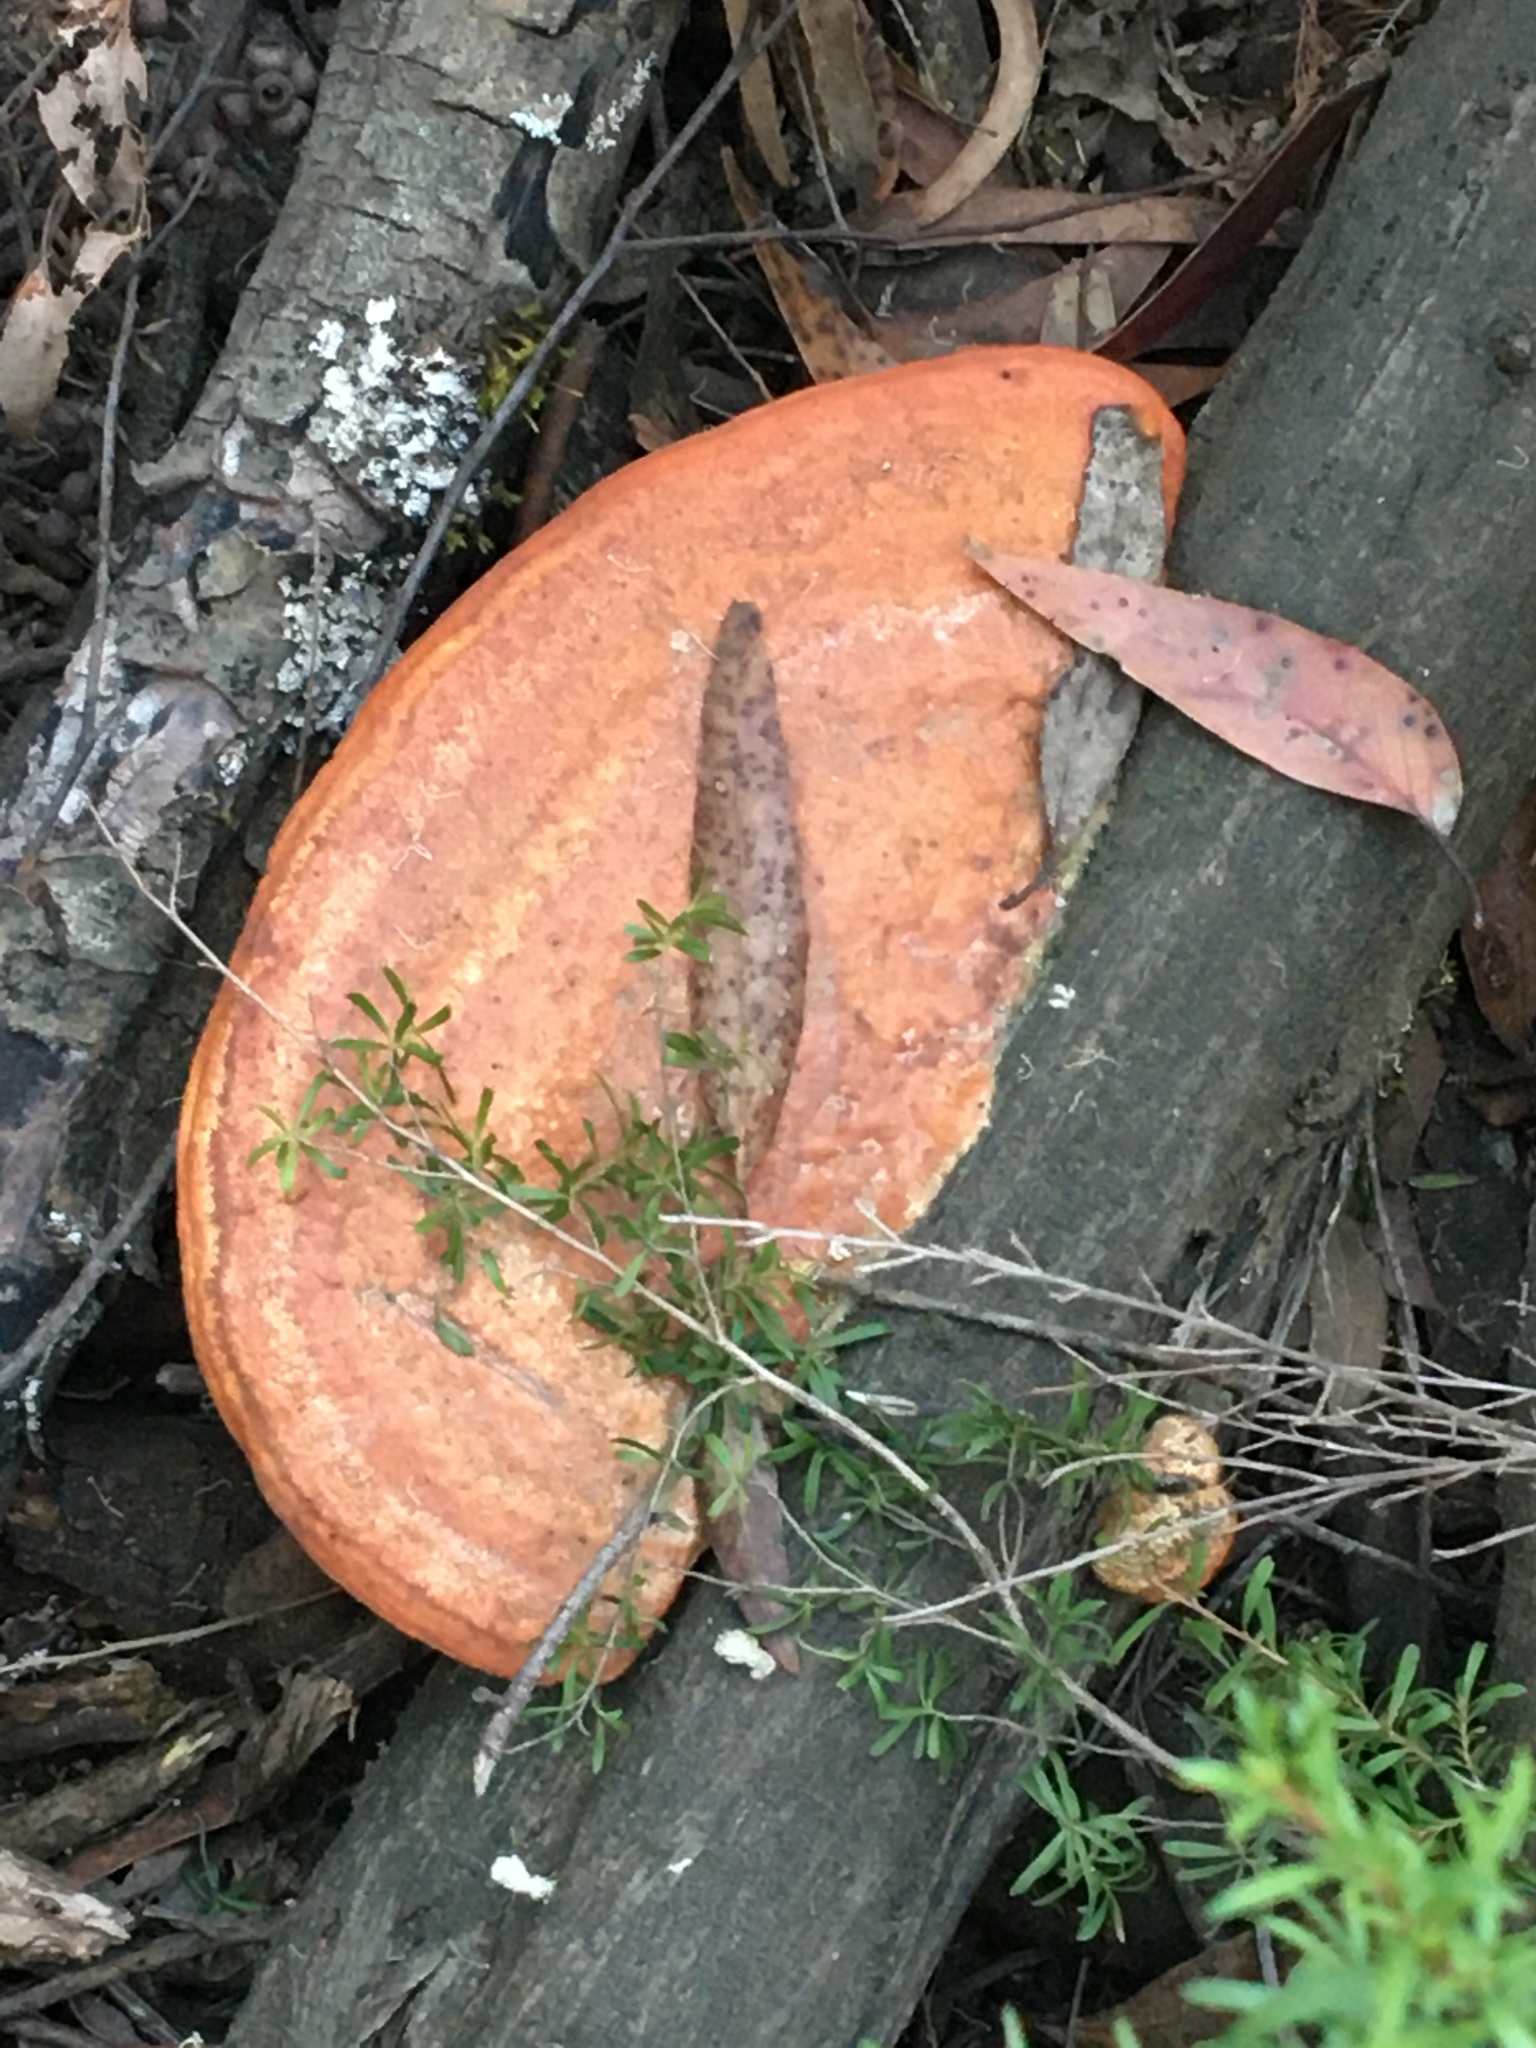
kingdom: Fungi
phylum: Basidiomycota
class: Agaricomycetes
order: Polyporales
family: Polyporaceae
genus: Trametes
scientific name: Trametes coccinea
